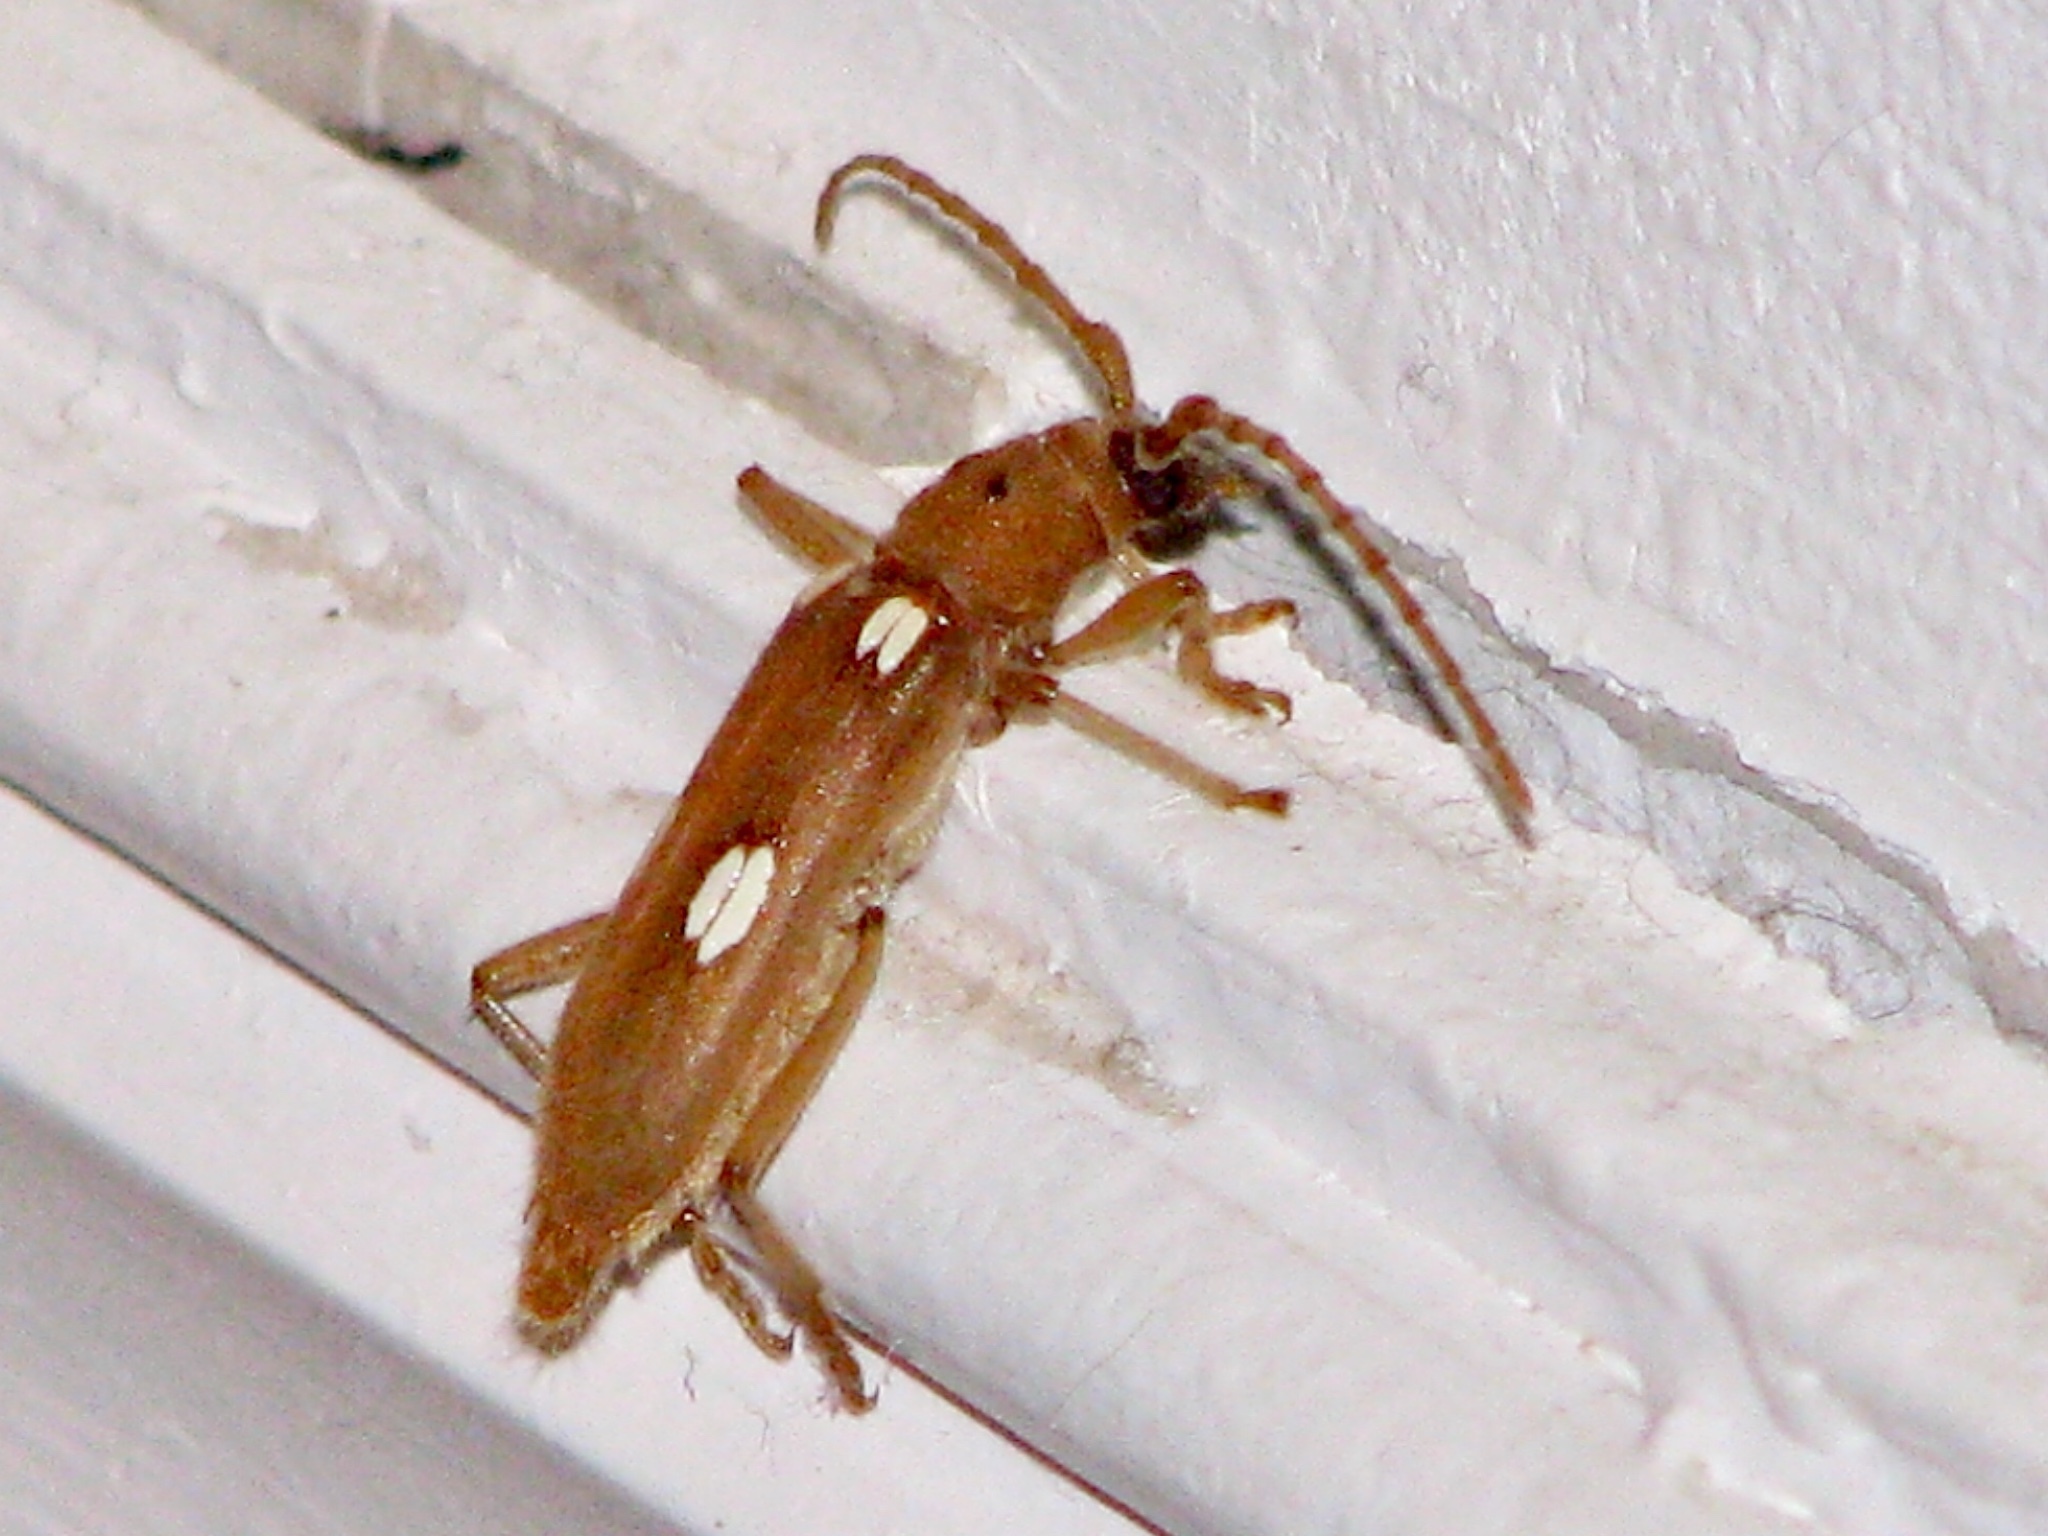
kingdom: Animalia
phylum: Arthropoda
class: Insecta
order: Coleoptera
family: Cerambycidae
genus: Eburia
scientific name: Eburia quadrigeminata
